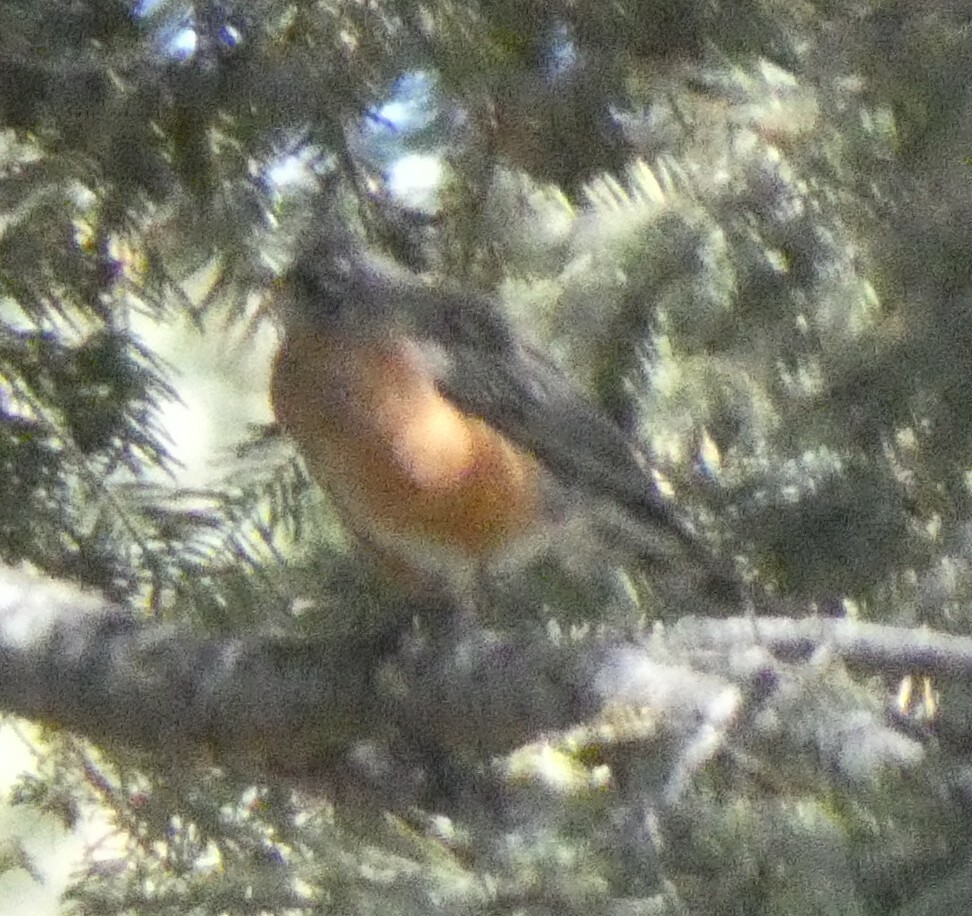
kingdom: Animalia
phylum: Chordata
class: Aves
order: Passeriformes
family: Turdidae
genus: Turdus
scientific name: Turdus migratorius
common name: American robin
